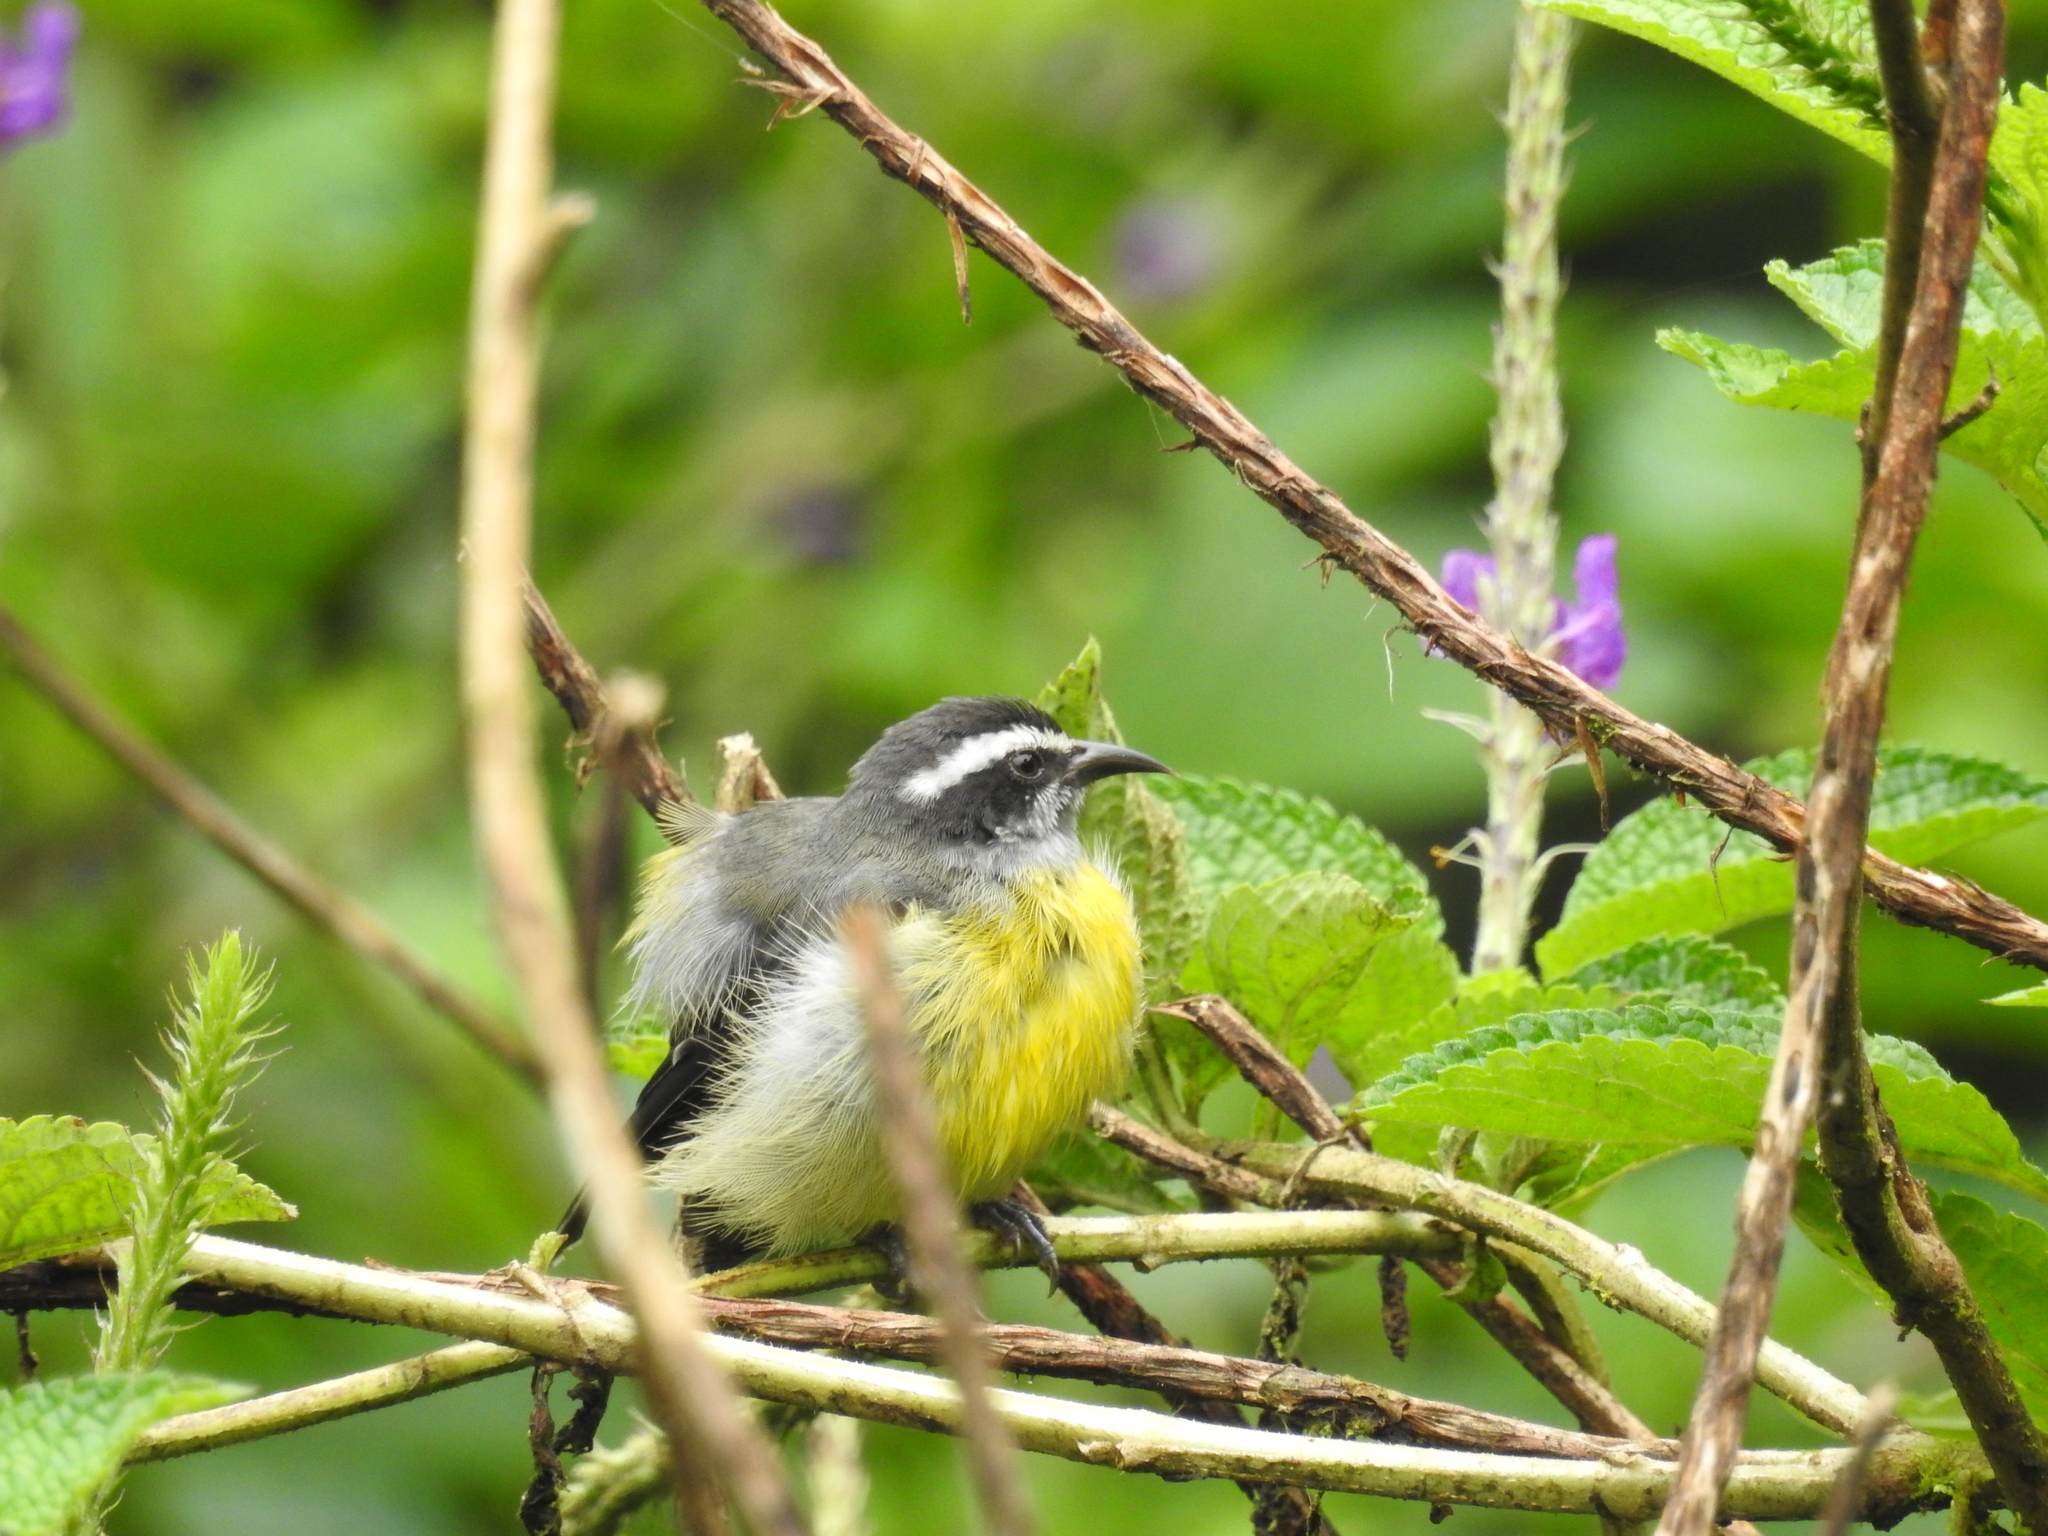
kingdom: Animalia
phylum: Chordata
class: Aves
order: Passeriformes
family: Thraupidae
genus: Coereba
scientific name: Coereba flaveola
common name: Bananaquit
